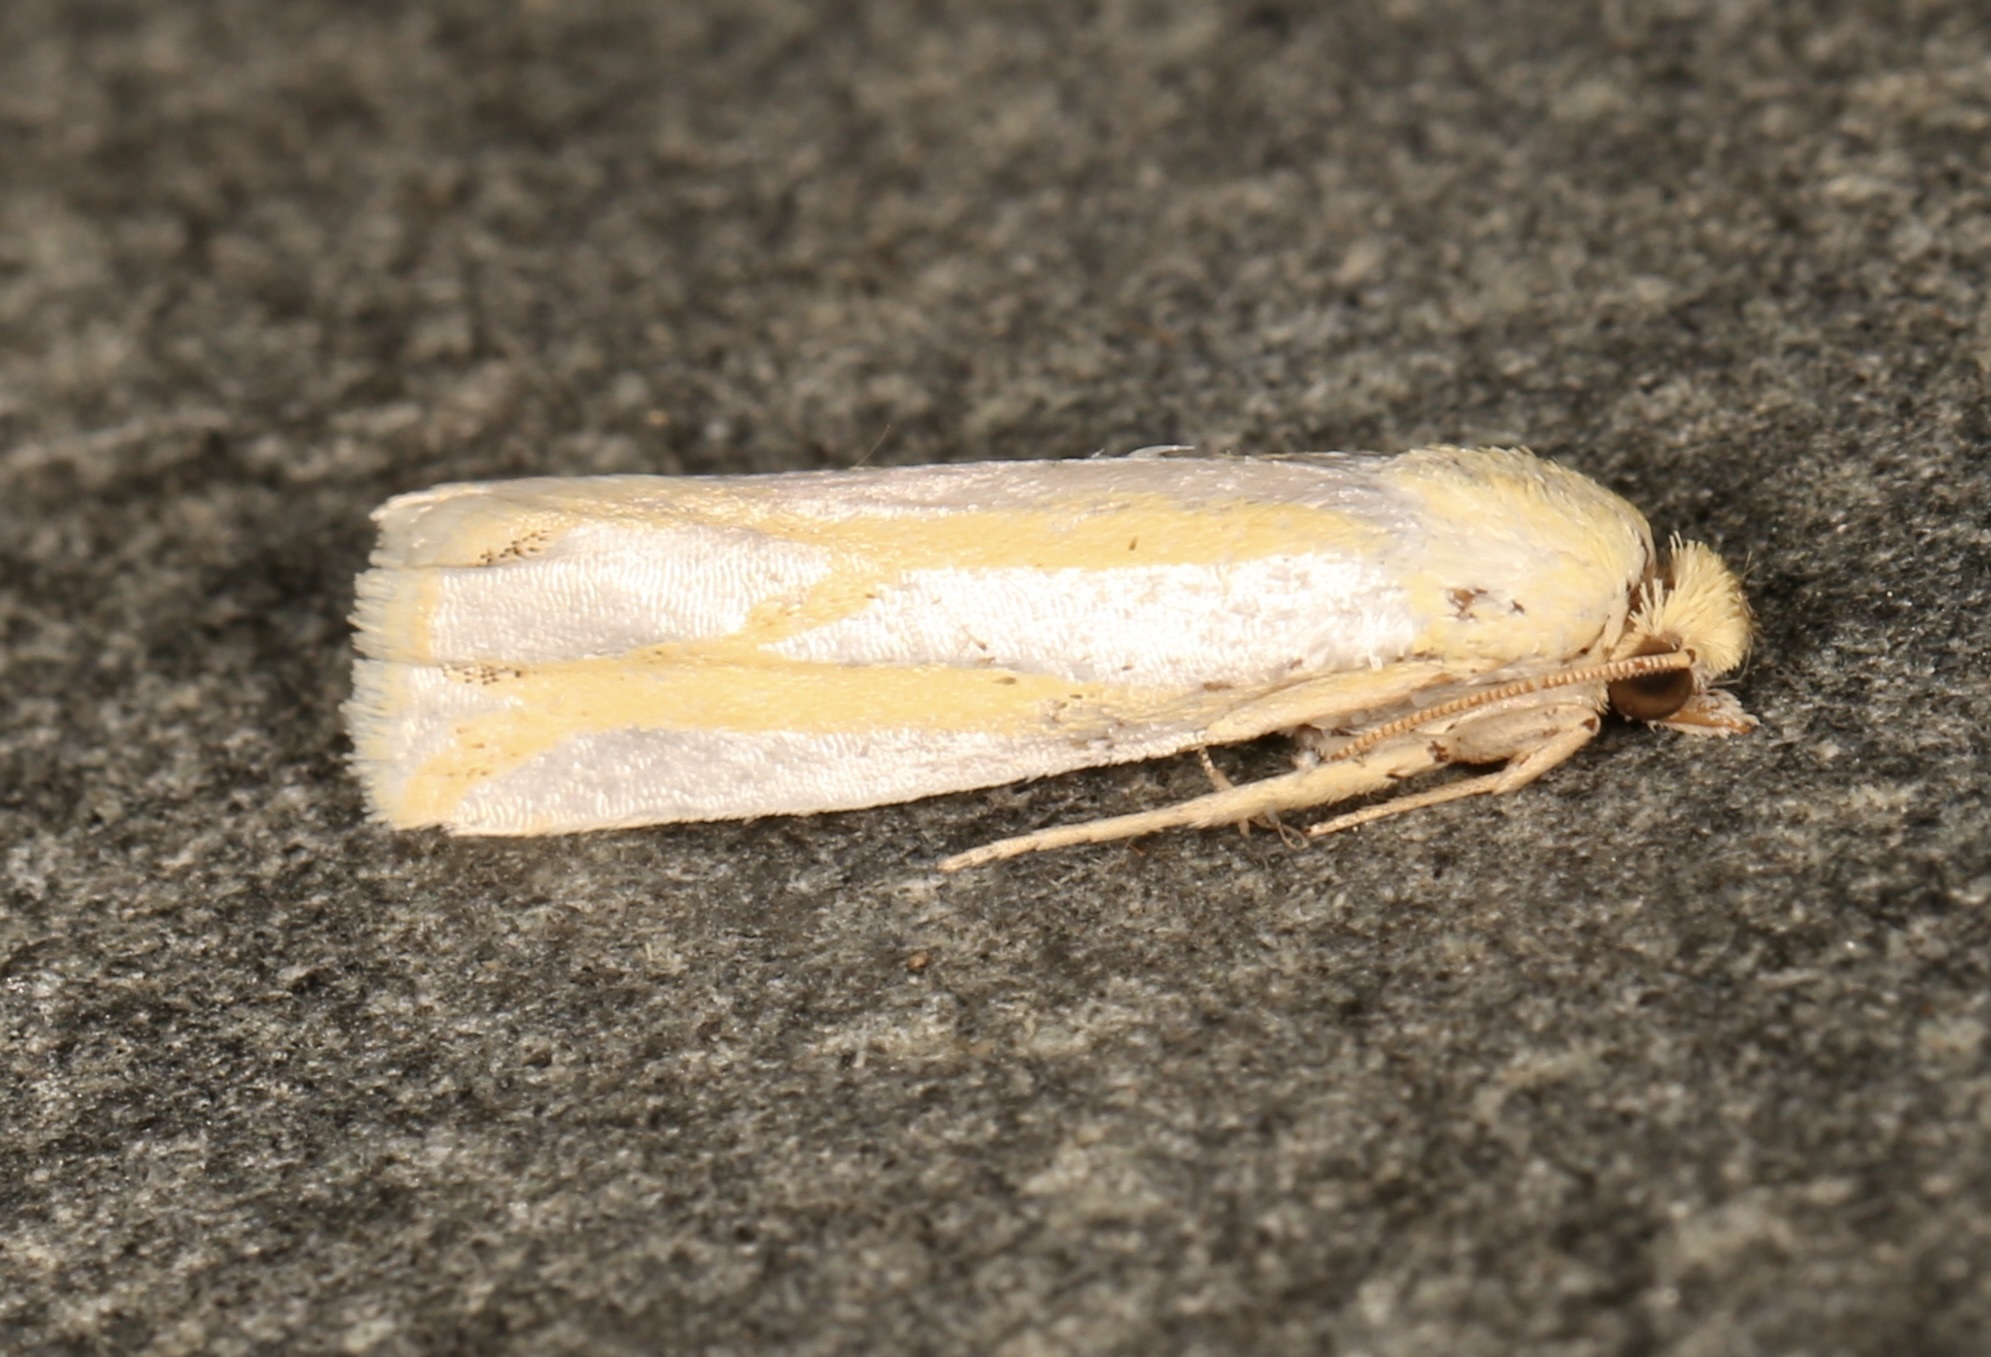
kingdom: Animalia
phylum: Arthropoda
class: Insecta
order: Lepidoptera
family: Tortricidae
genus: Pelochrista
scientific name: Pelochrista canariana
